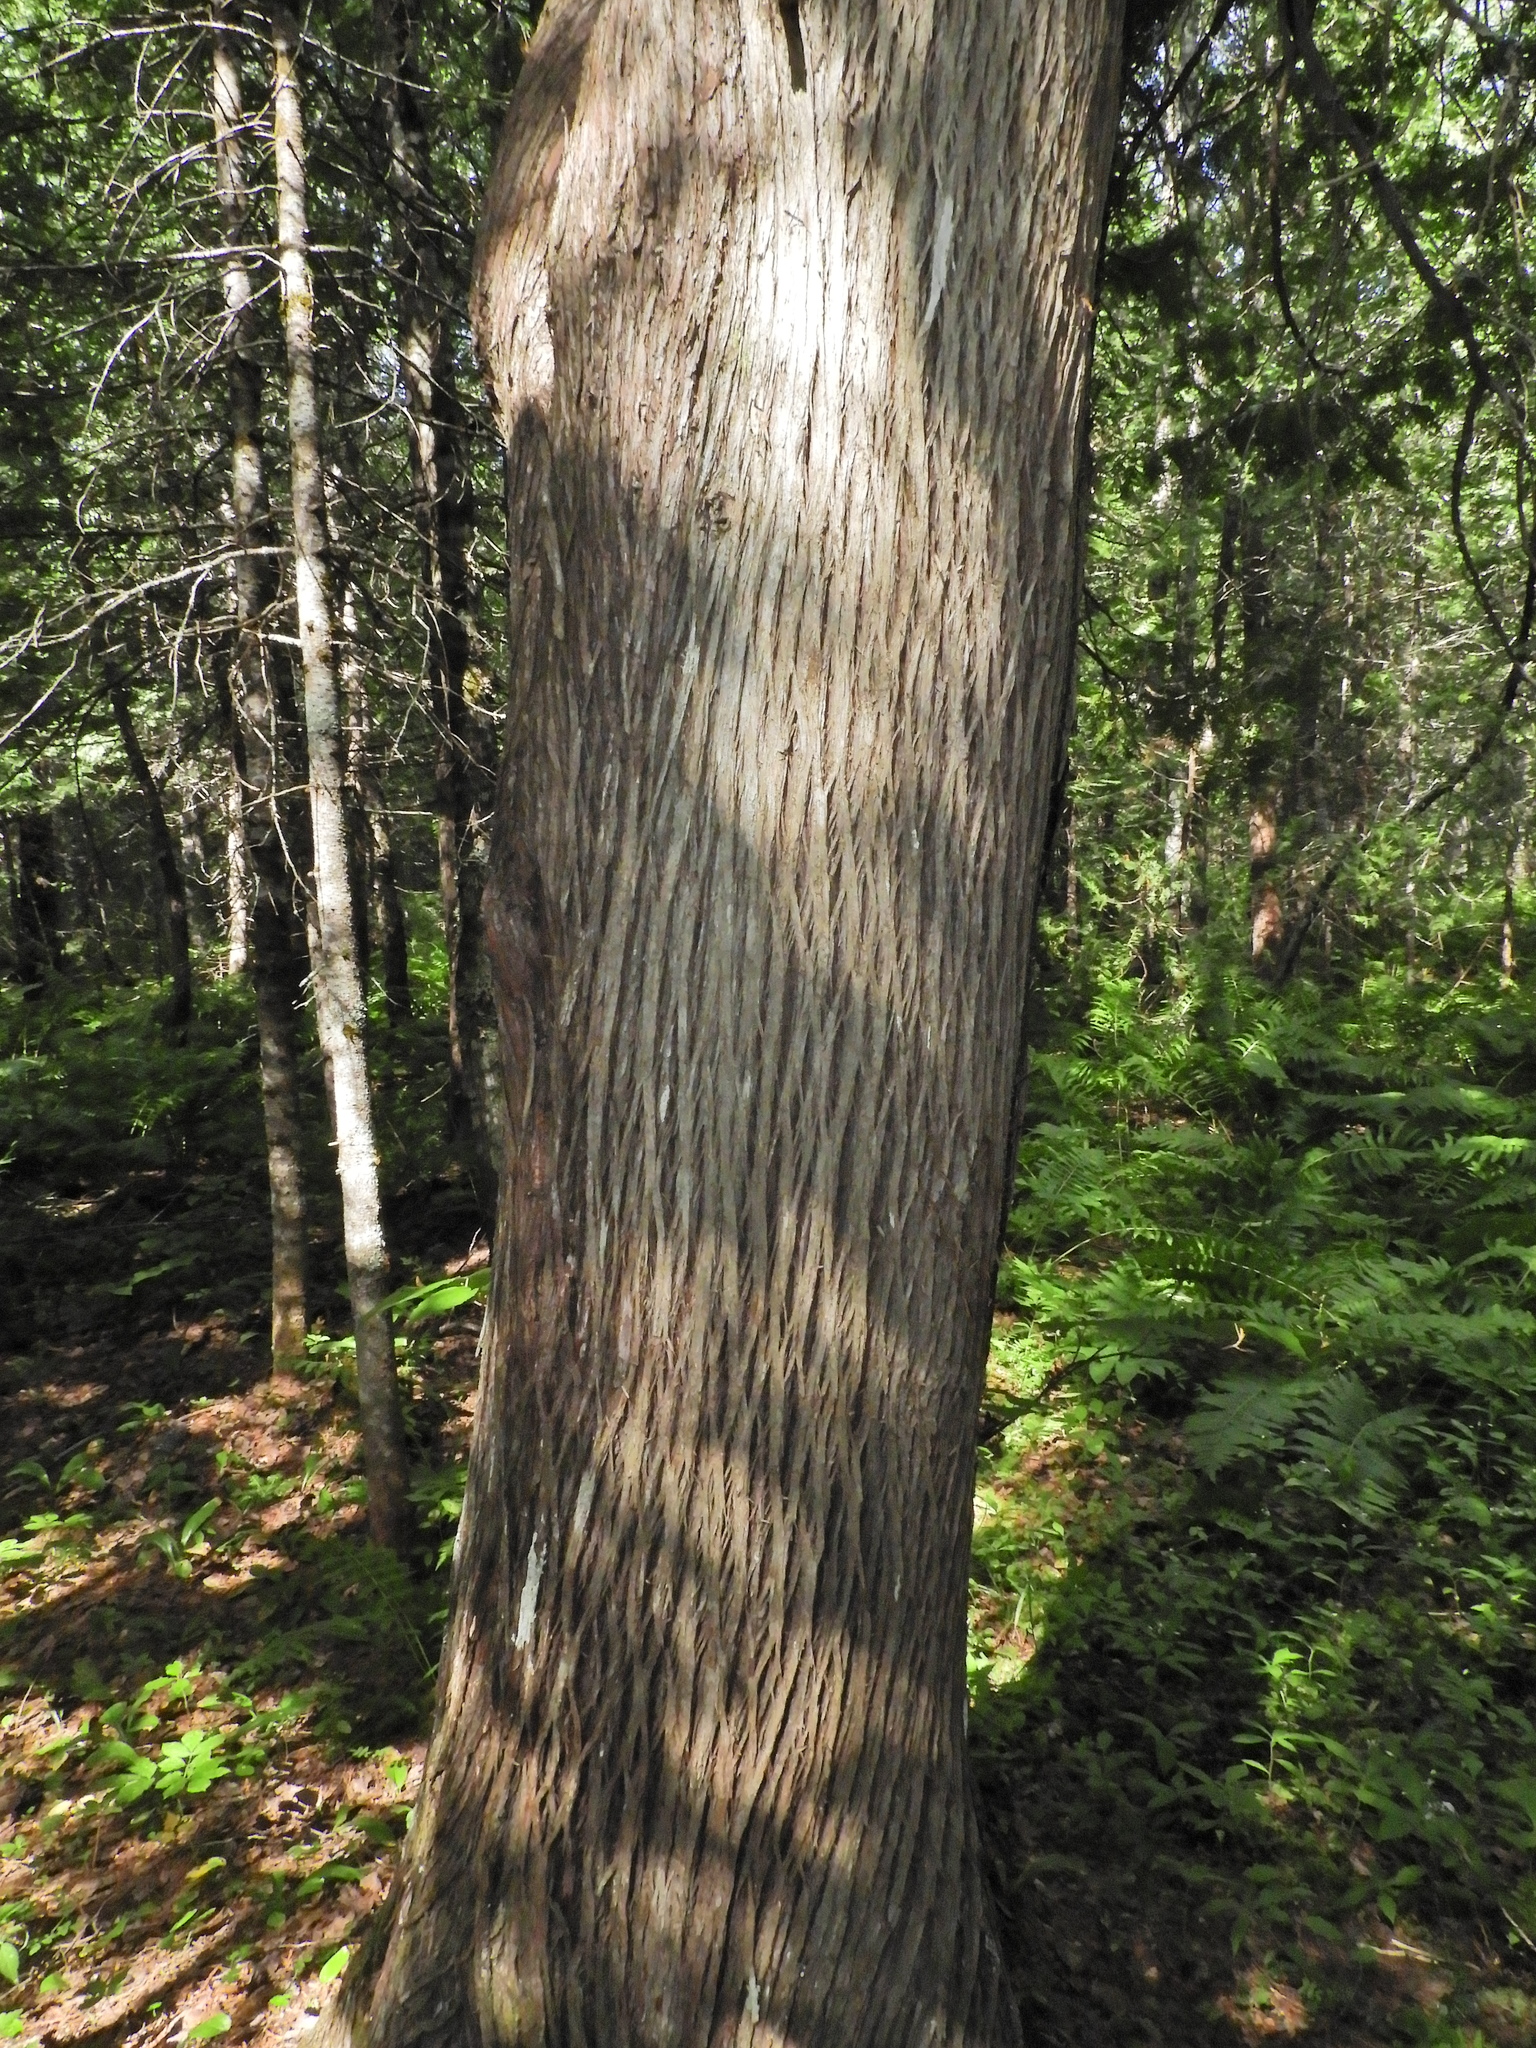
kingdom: Plantae
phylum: Tracheophyta
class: Pinopsida
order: Pinales
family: Cupressaceae
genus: Thuja
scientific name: Thuja occidentalis
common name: Northern white-cedar
